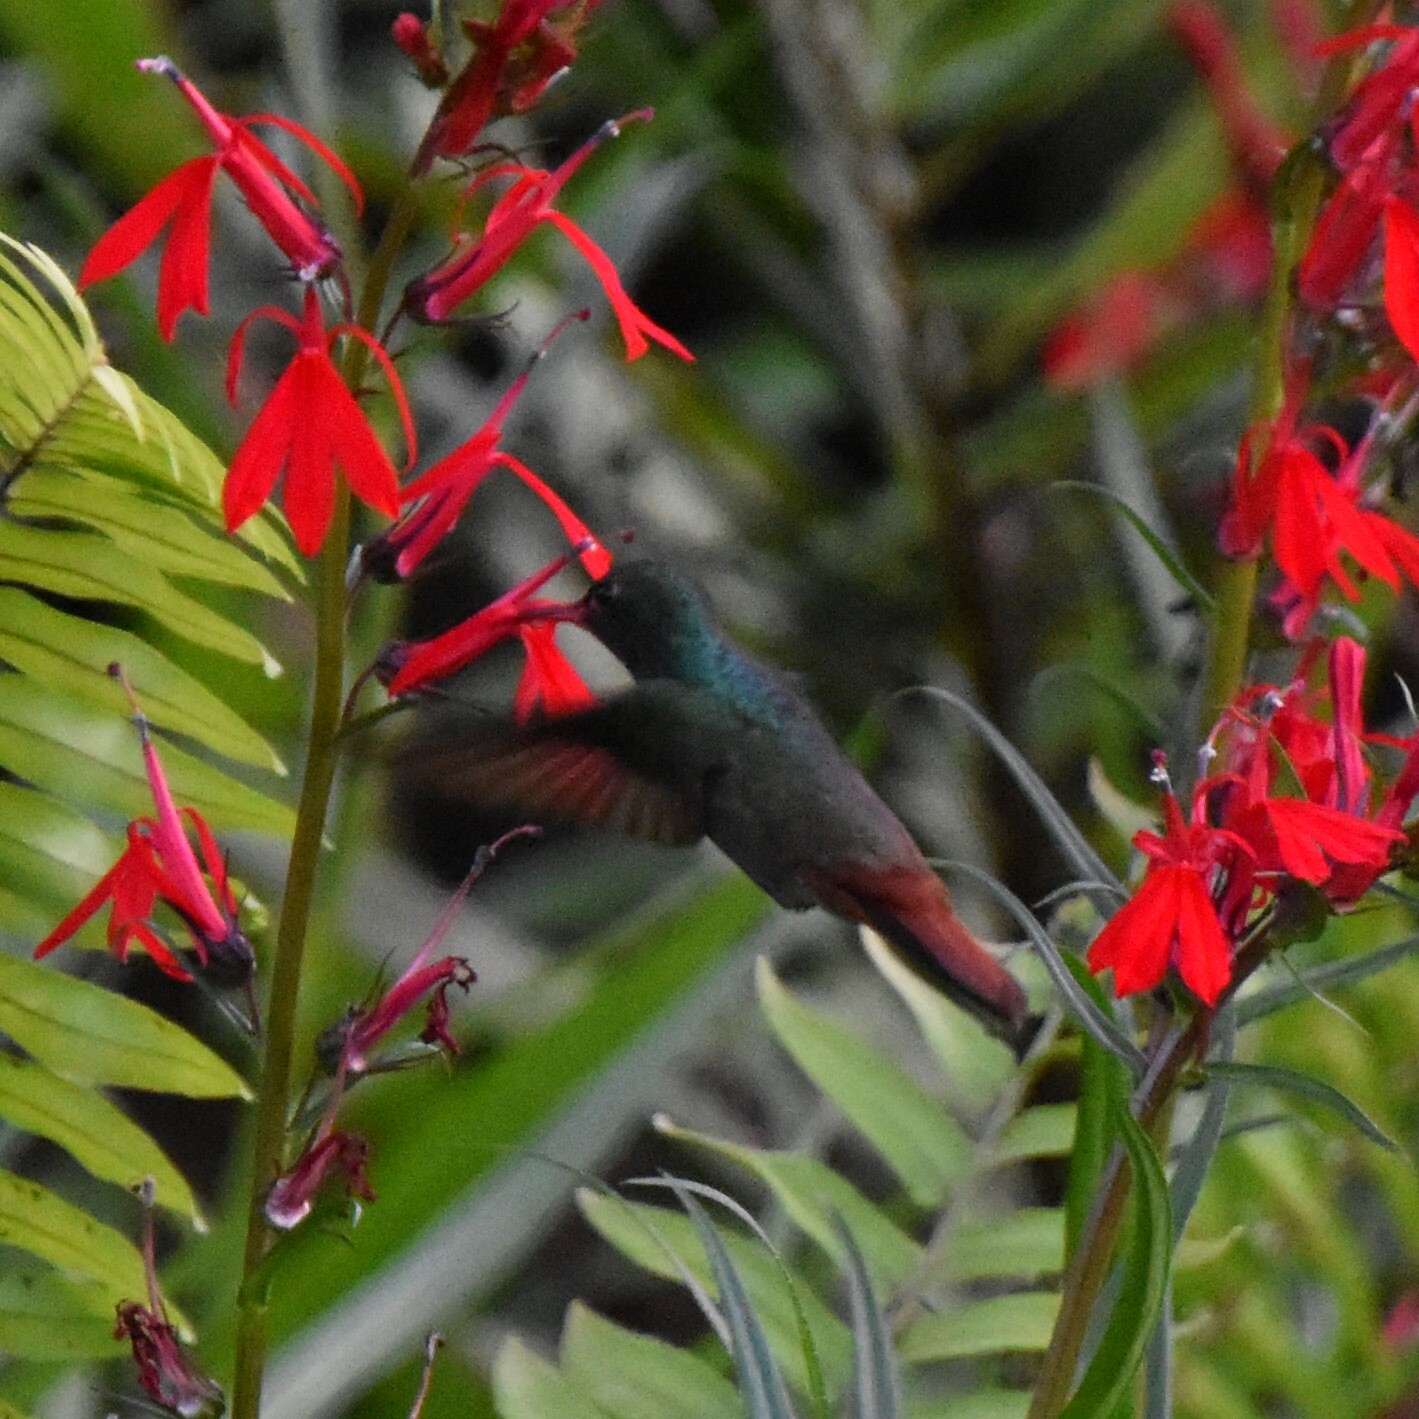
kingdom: Animalia
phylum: Chordata
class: Aves
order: Apodiformes
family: Trochilidae
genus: Amazilia
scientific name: Amazilia tzacatl
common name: Rufous-tailed hummingbird
